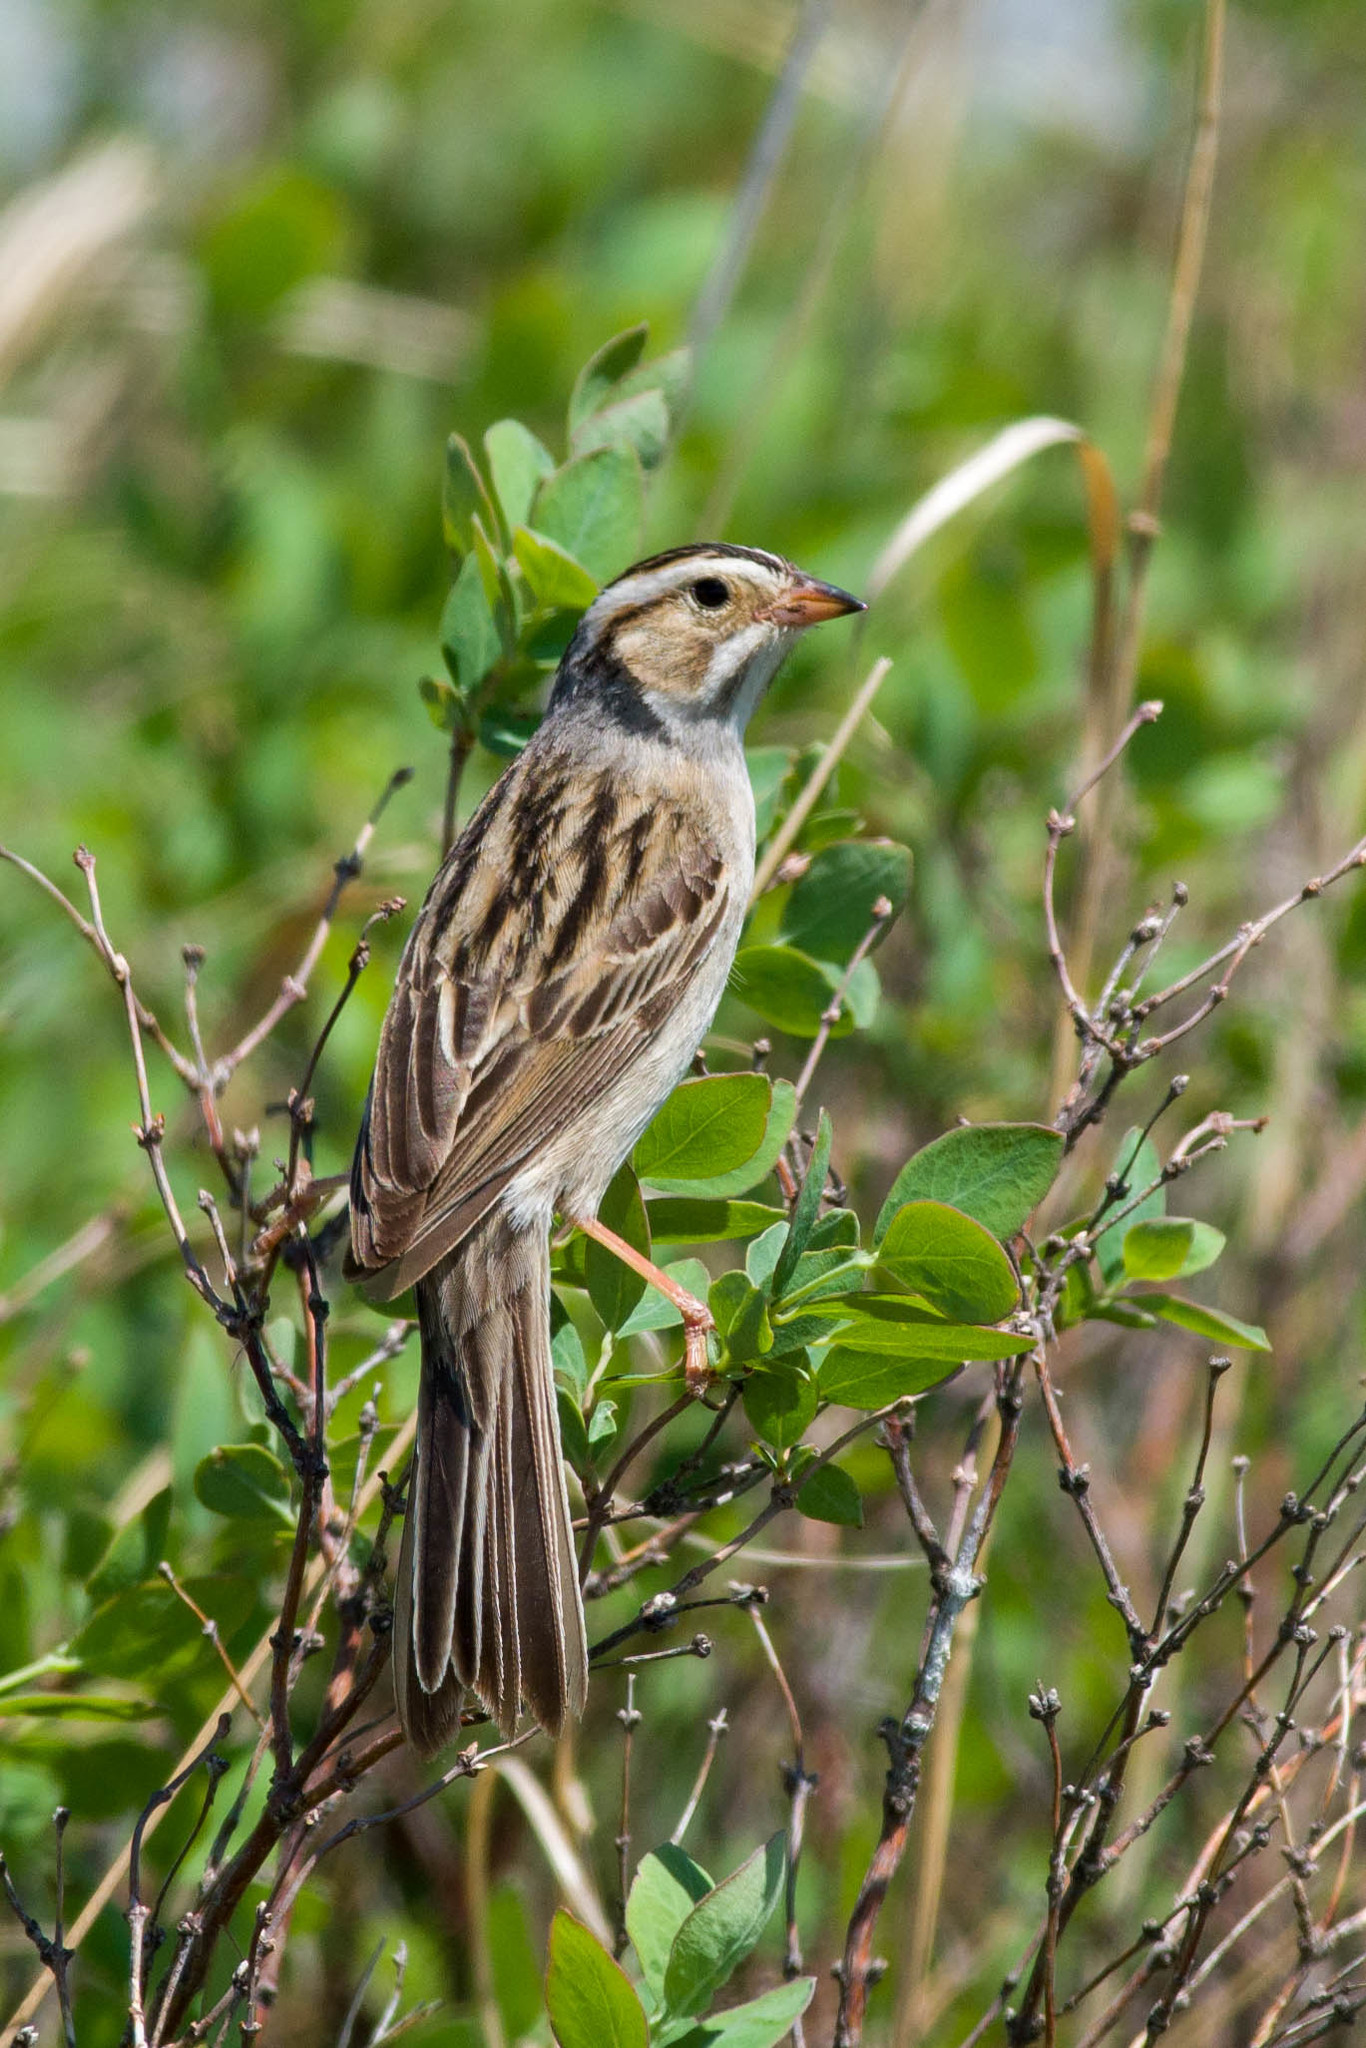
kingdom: Animalia
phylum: Chordata
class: Aves
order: Passeriformes
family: Passerellidae
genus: Spizella
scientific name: Spizella pallida
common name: Clay-colored sparrow
